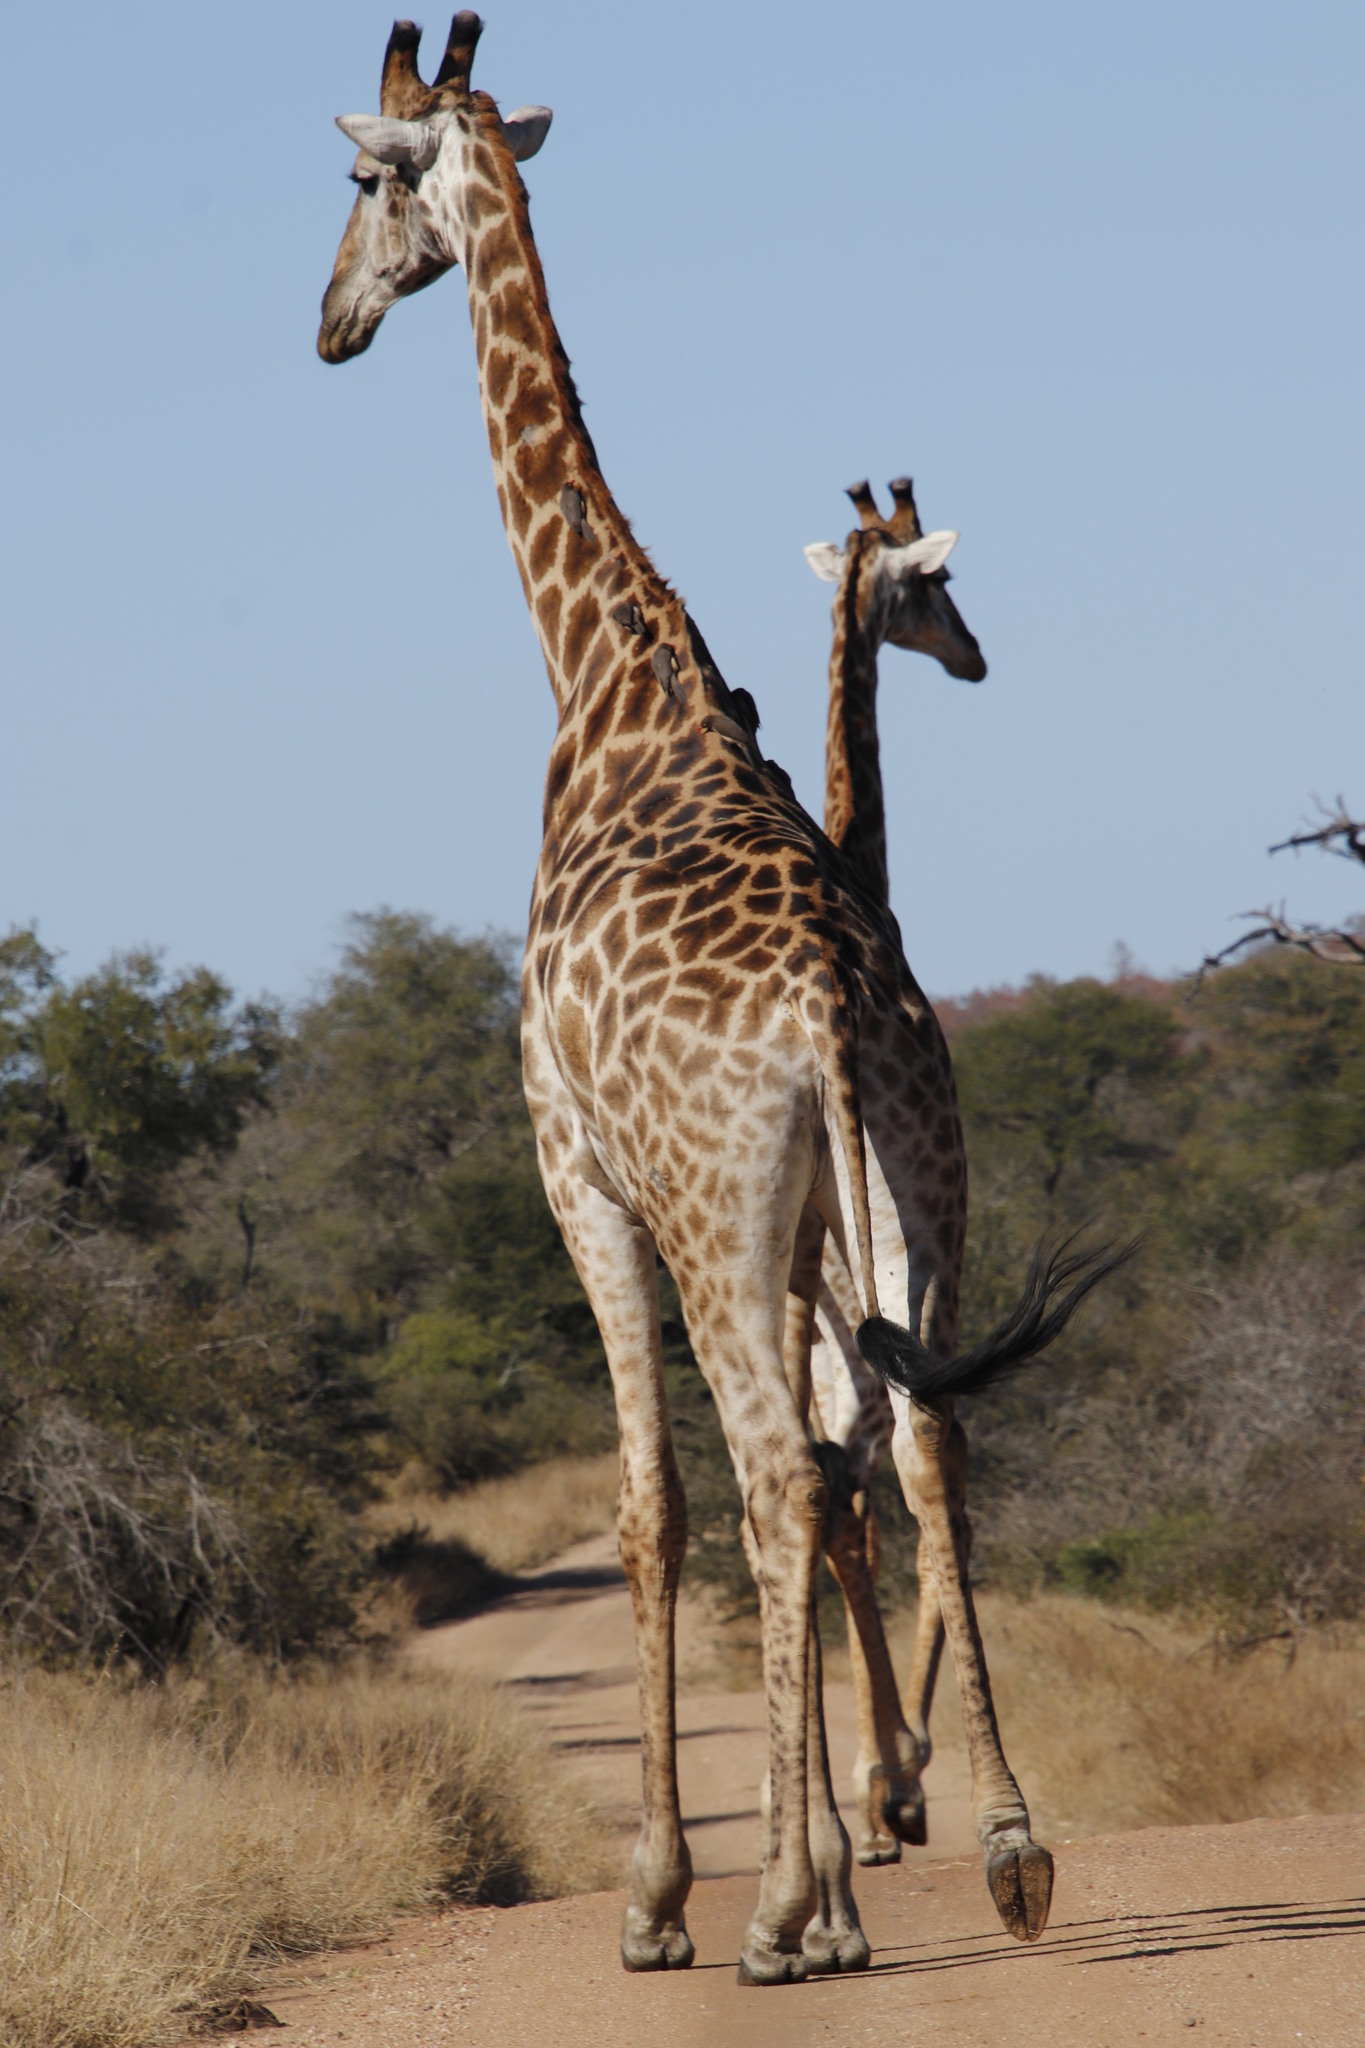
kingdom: Animalia
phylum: Chordata
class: Mammalia
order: Artiodactyla
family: Giraffidae
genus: Giraffa
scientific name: Giraffa giraffa
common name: Southern giraffe
